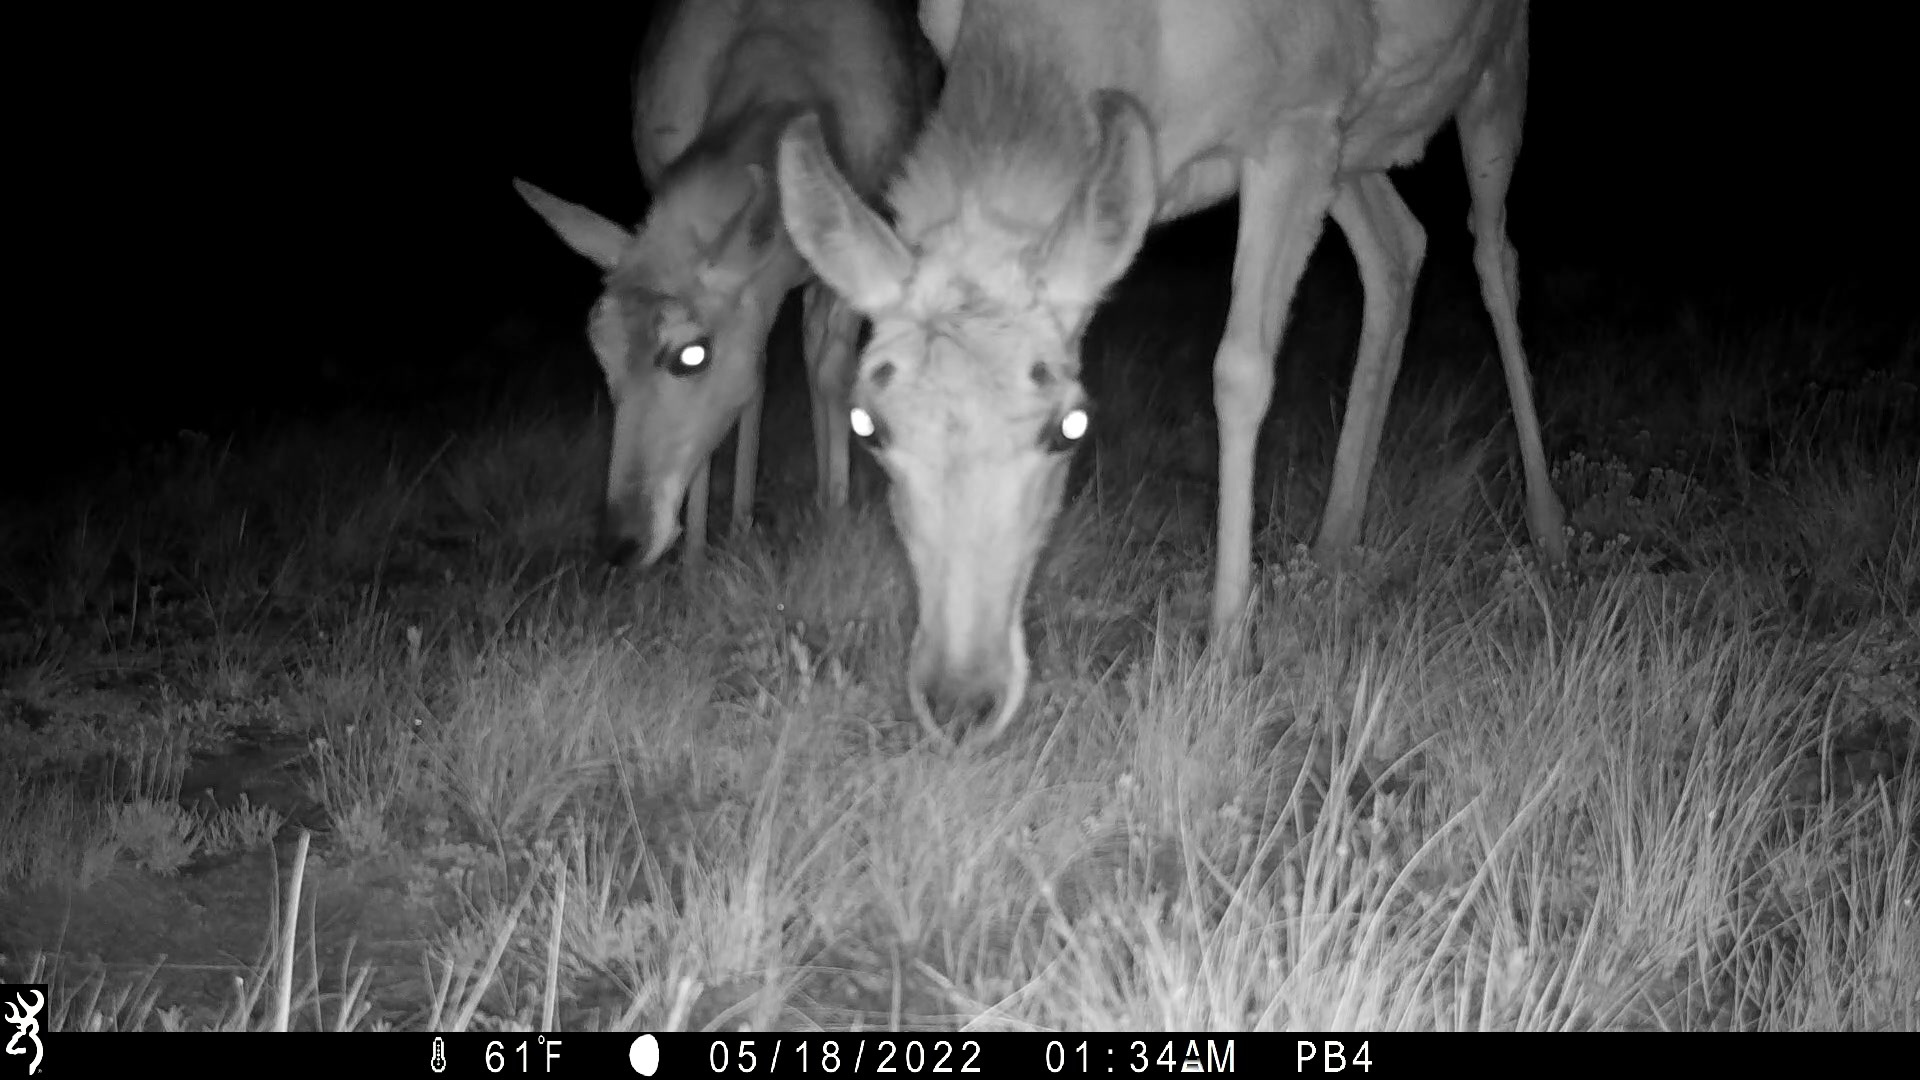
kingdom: Animalia
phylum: Chordata
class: Mammalia
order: Artiodactyla
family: Antilocapridae
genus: Antilocapra
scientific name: Antilocapra americana
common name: Pronghorn
